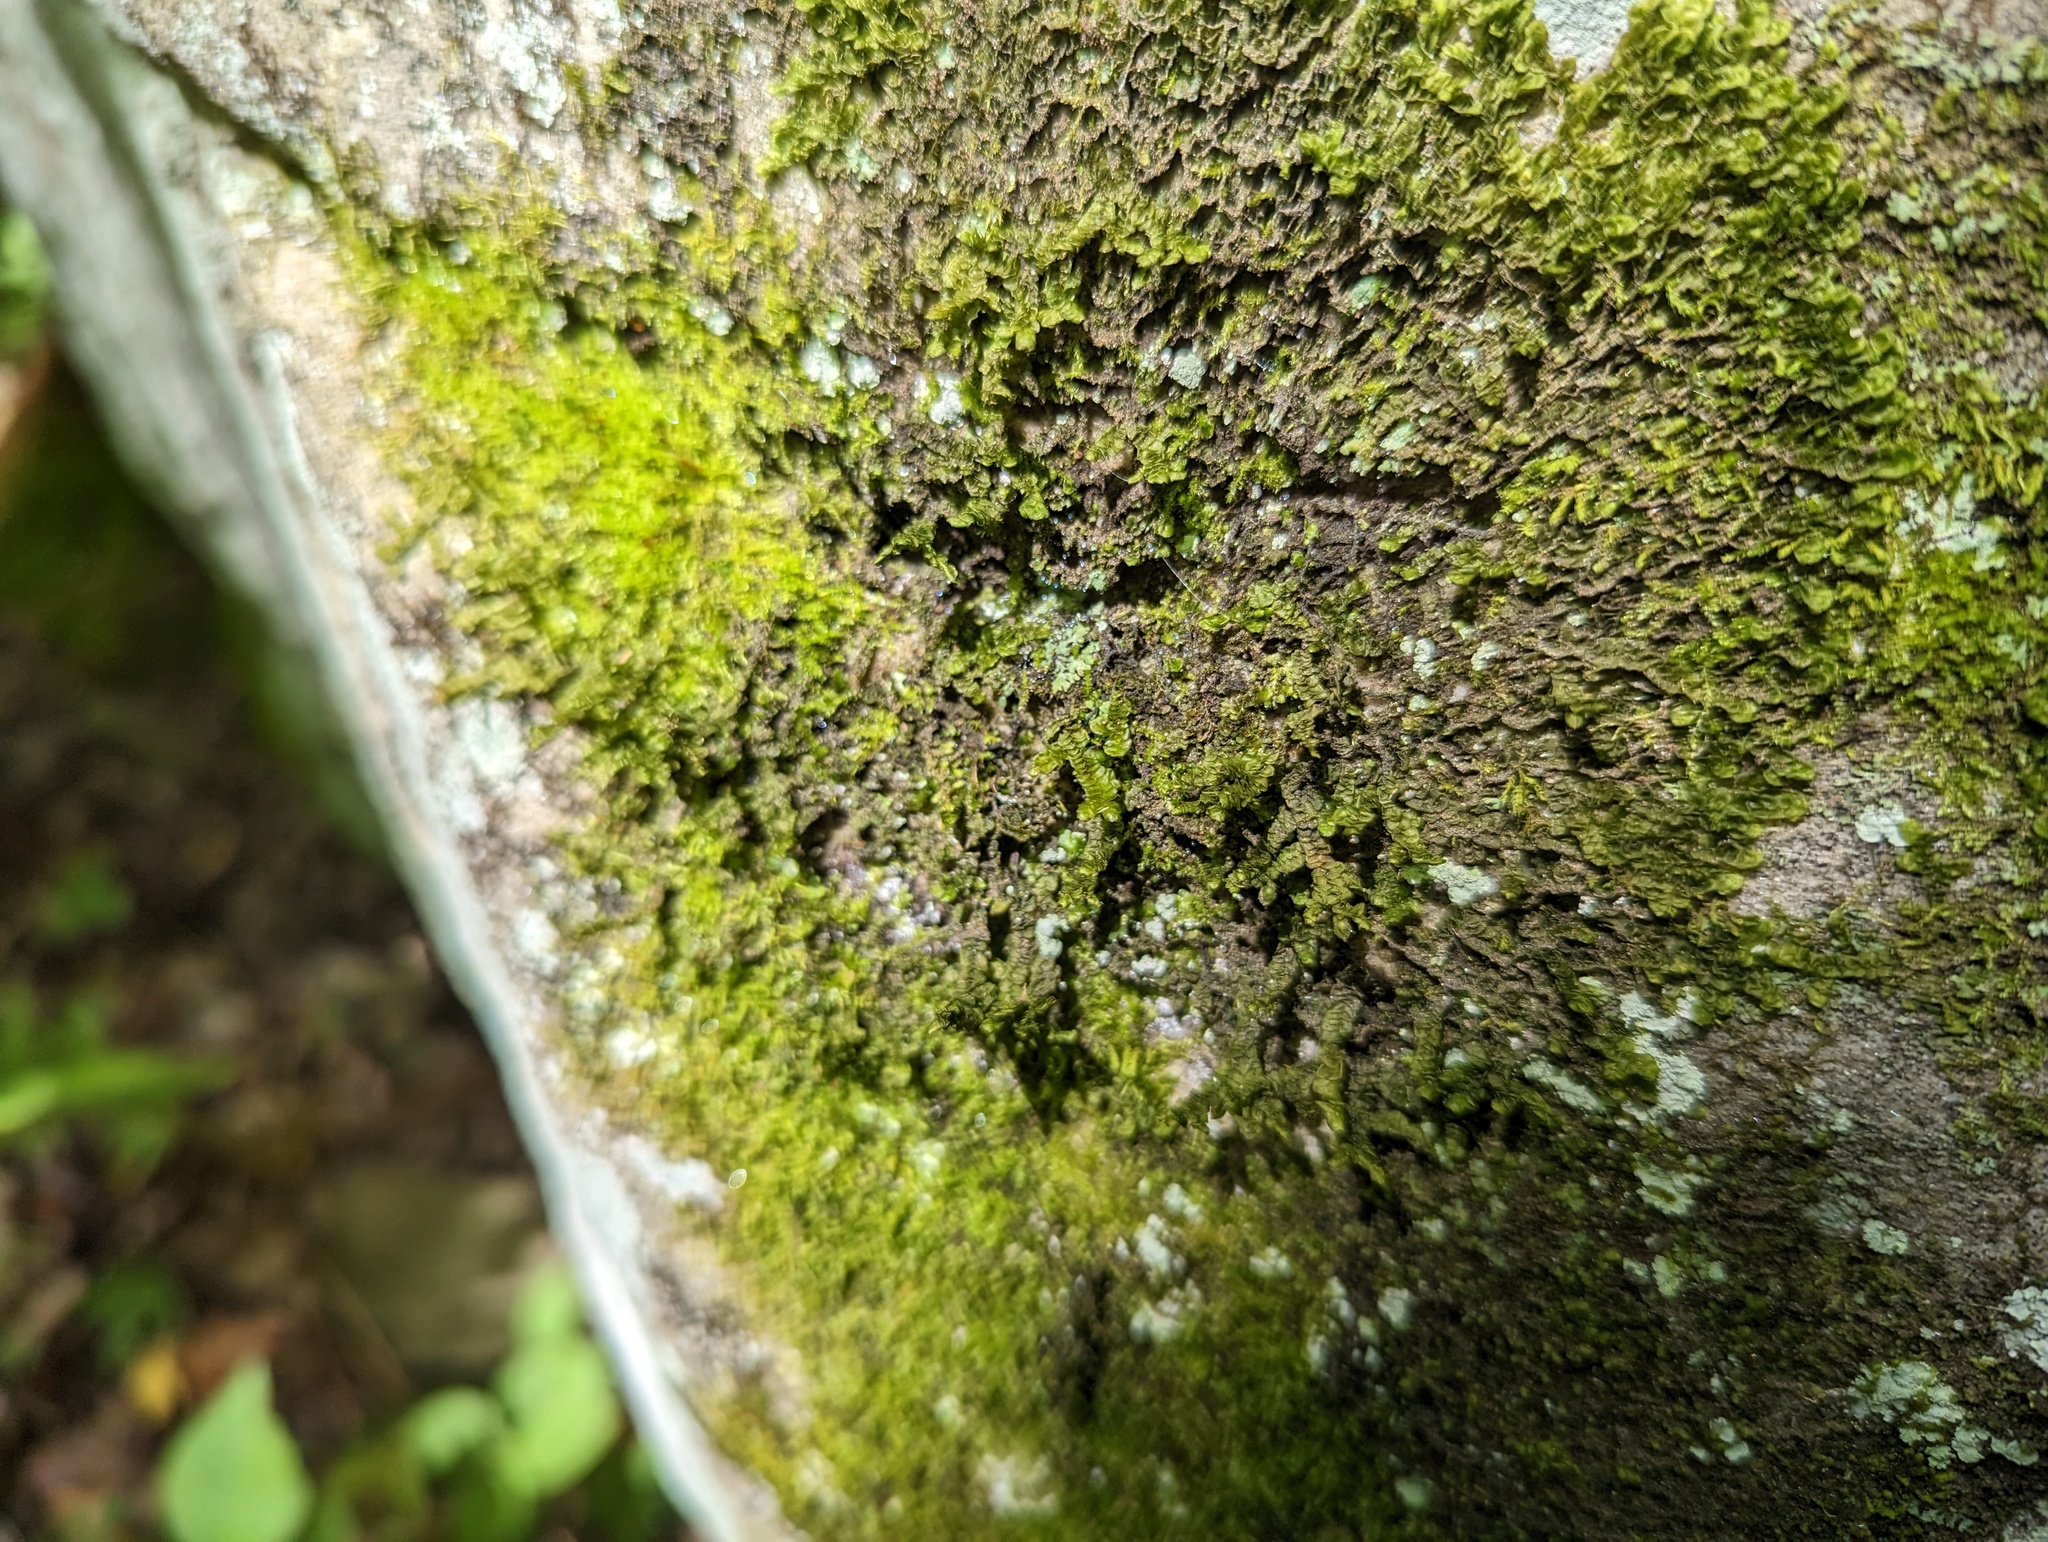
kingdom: Plantae
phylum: Marchantiophyta
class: Jungermanniopsida
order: Porellales
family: Porellaceae
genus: Porella
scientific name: Porella pinnata
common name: Pinnate scalewort
